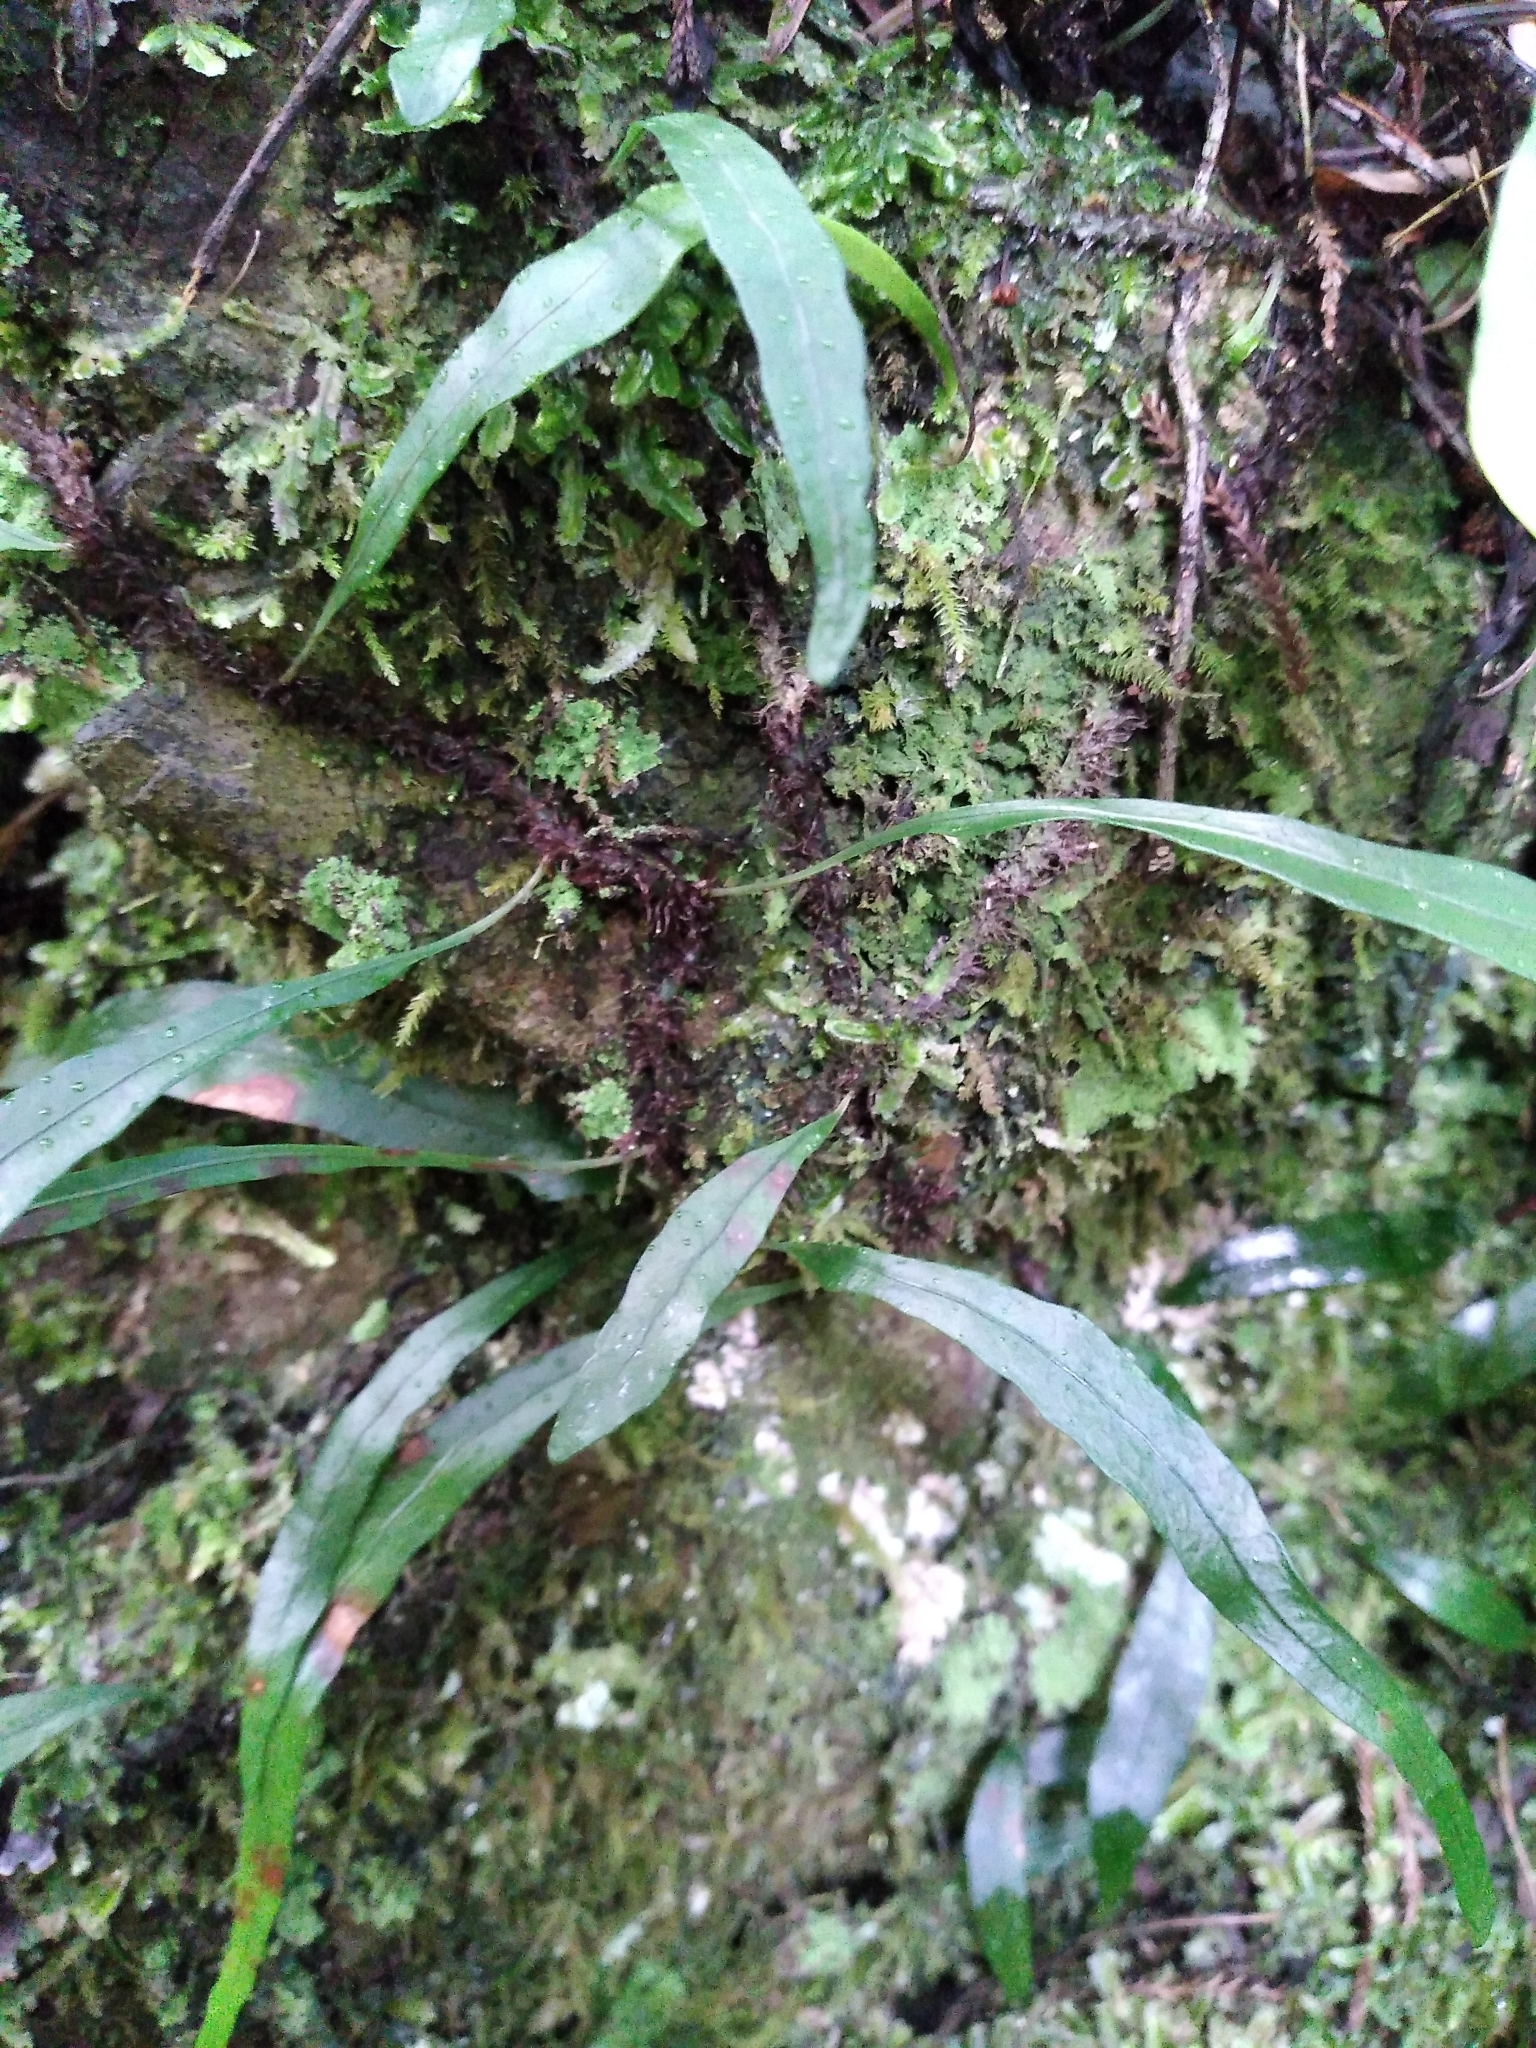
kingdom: Plantae
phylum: Tracheophyta
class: Polypodiopsida
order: Polypodiales
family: Polypodiaceae
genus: Lecanopteris
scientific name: Lecanopteris scandens
